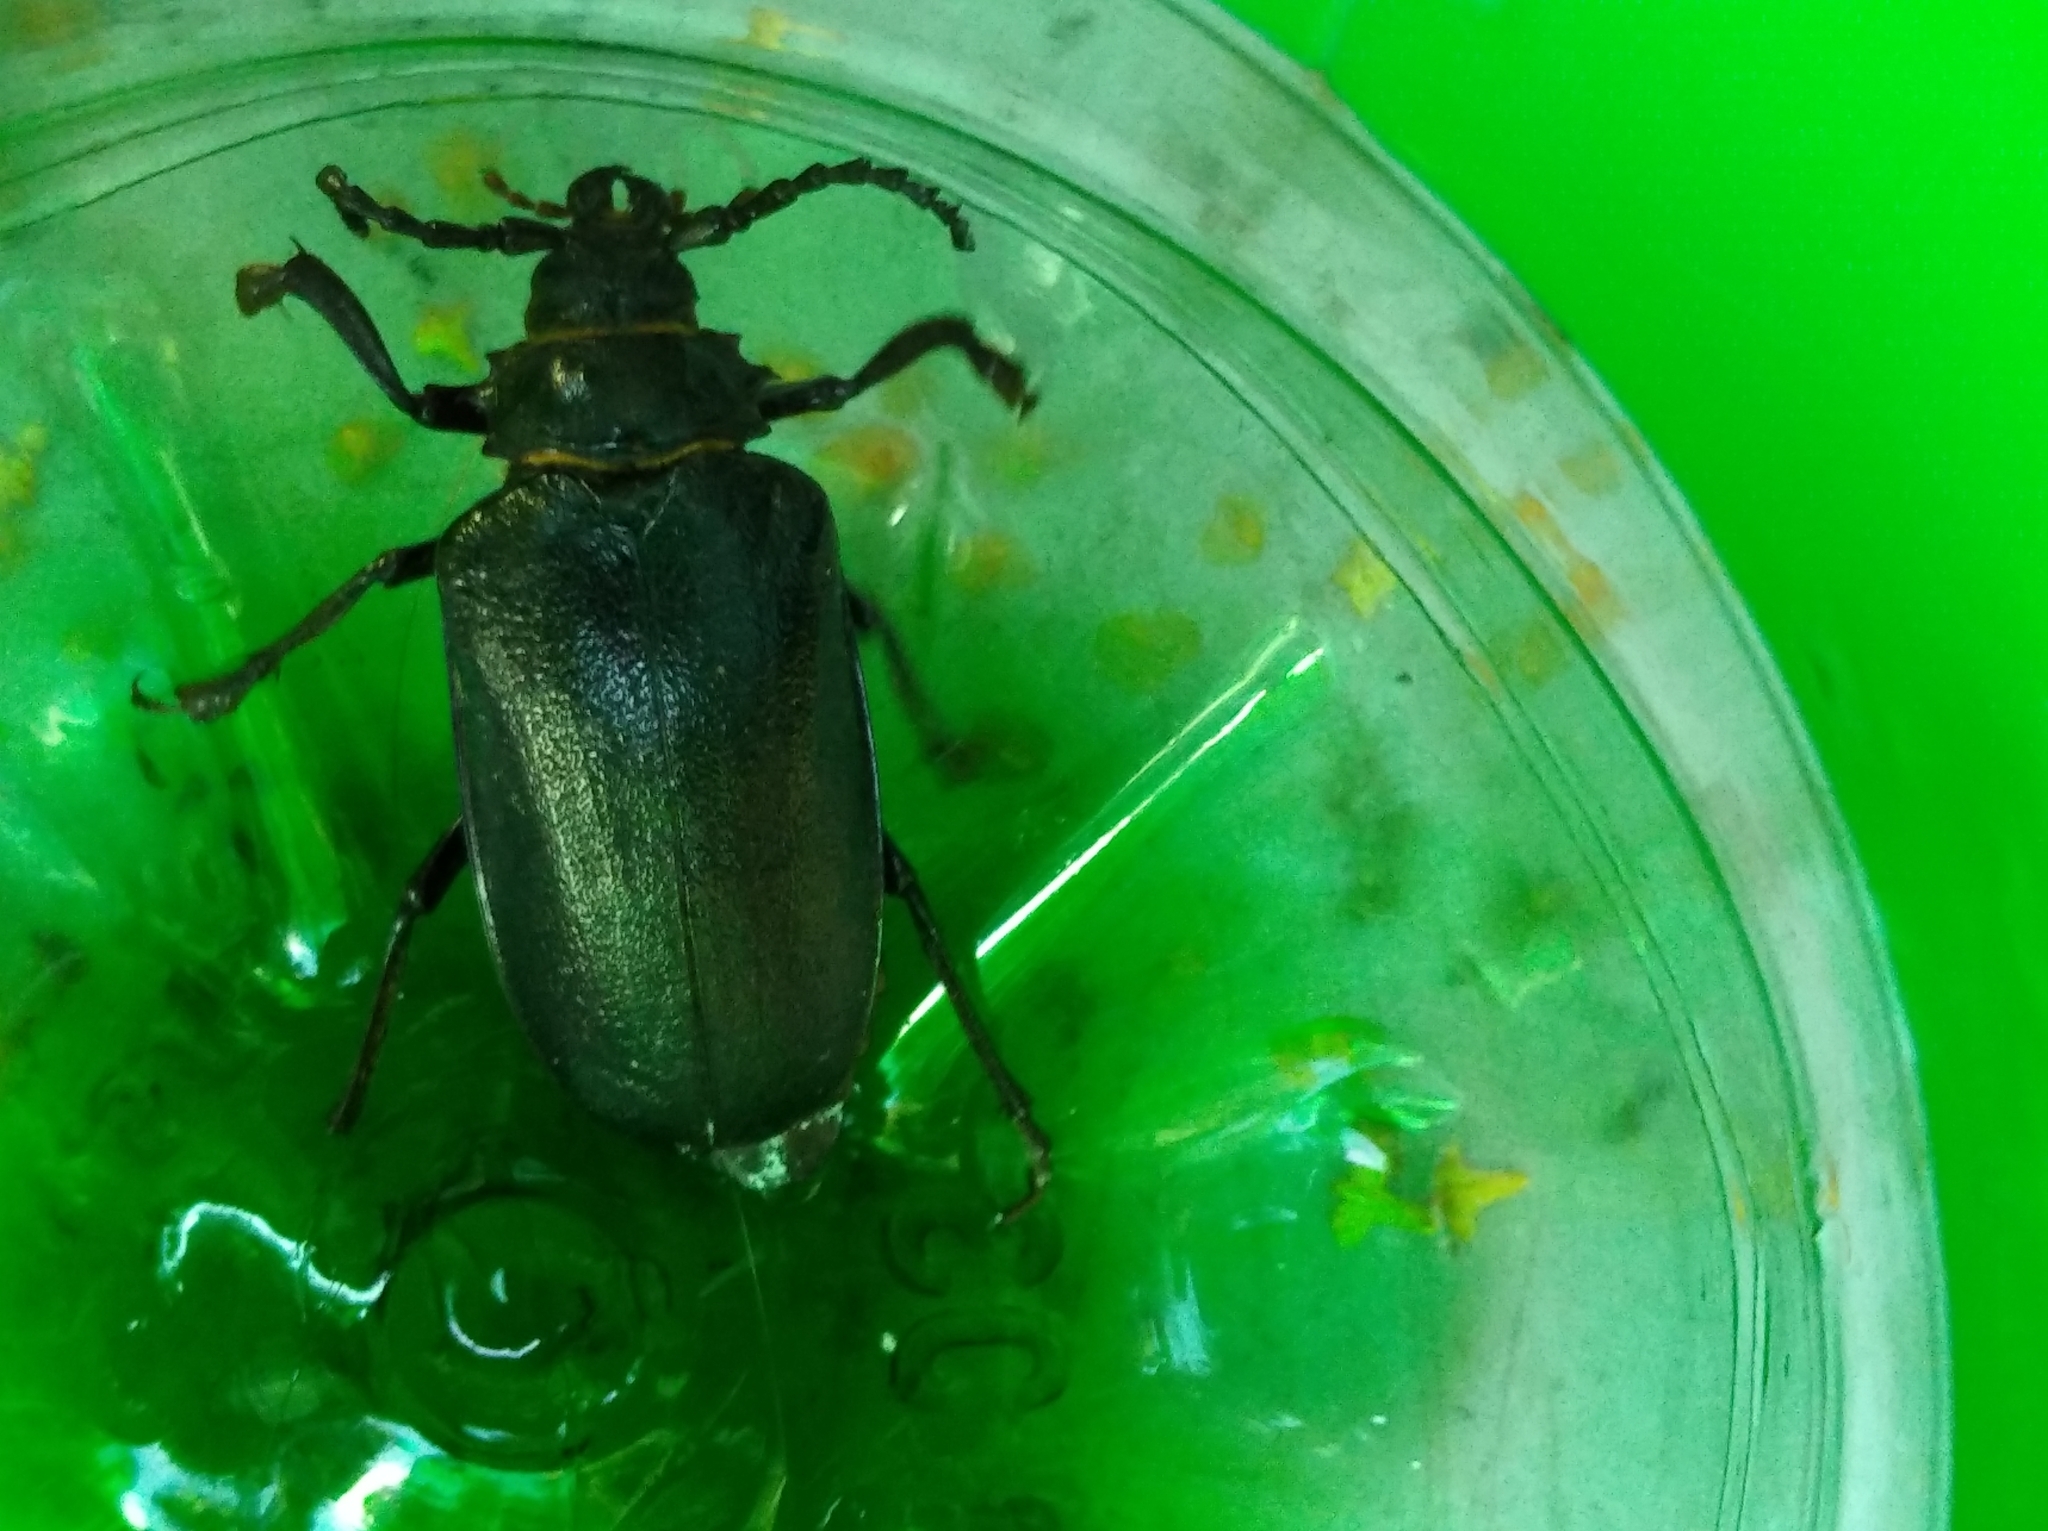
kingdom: Animalia
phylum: Arthropoda
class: Insecta
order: Coleoptera
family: Cerambycidae
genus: Prionus
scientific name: Prionus coriarius
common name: Tanner beetle
